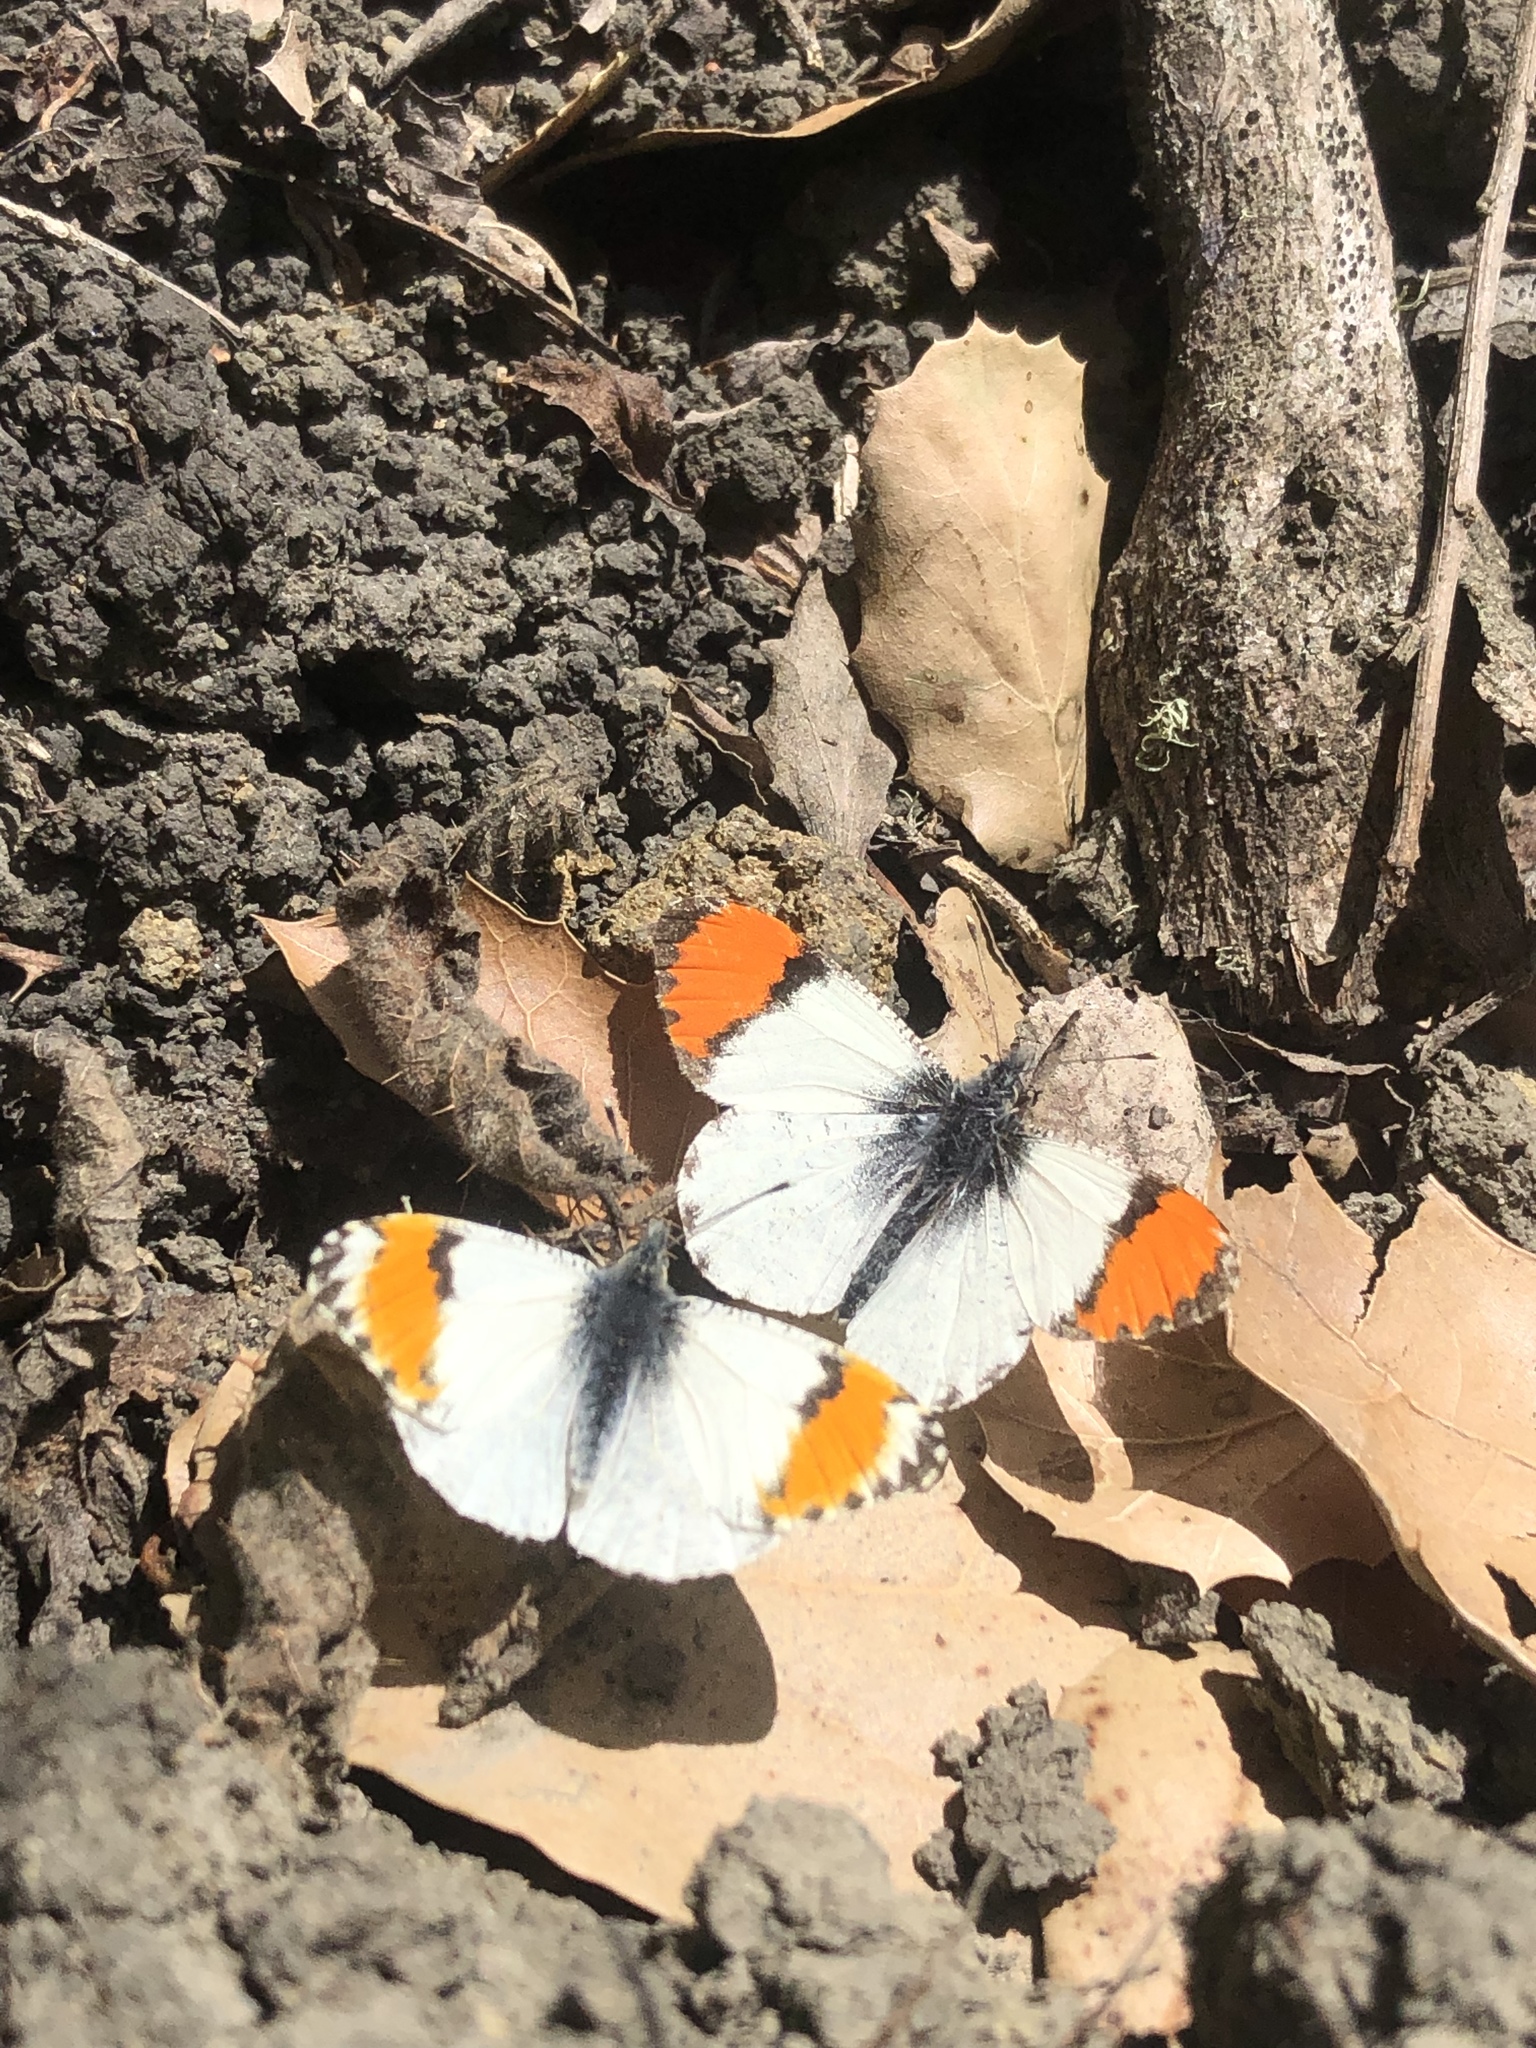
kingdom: Animalia
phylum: Arthropoda
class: Insecta
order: Lepidoptera
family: Pieridae
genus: Anthocharis
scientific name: Anthocharis sara
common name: Sara's orangetip
